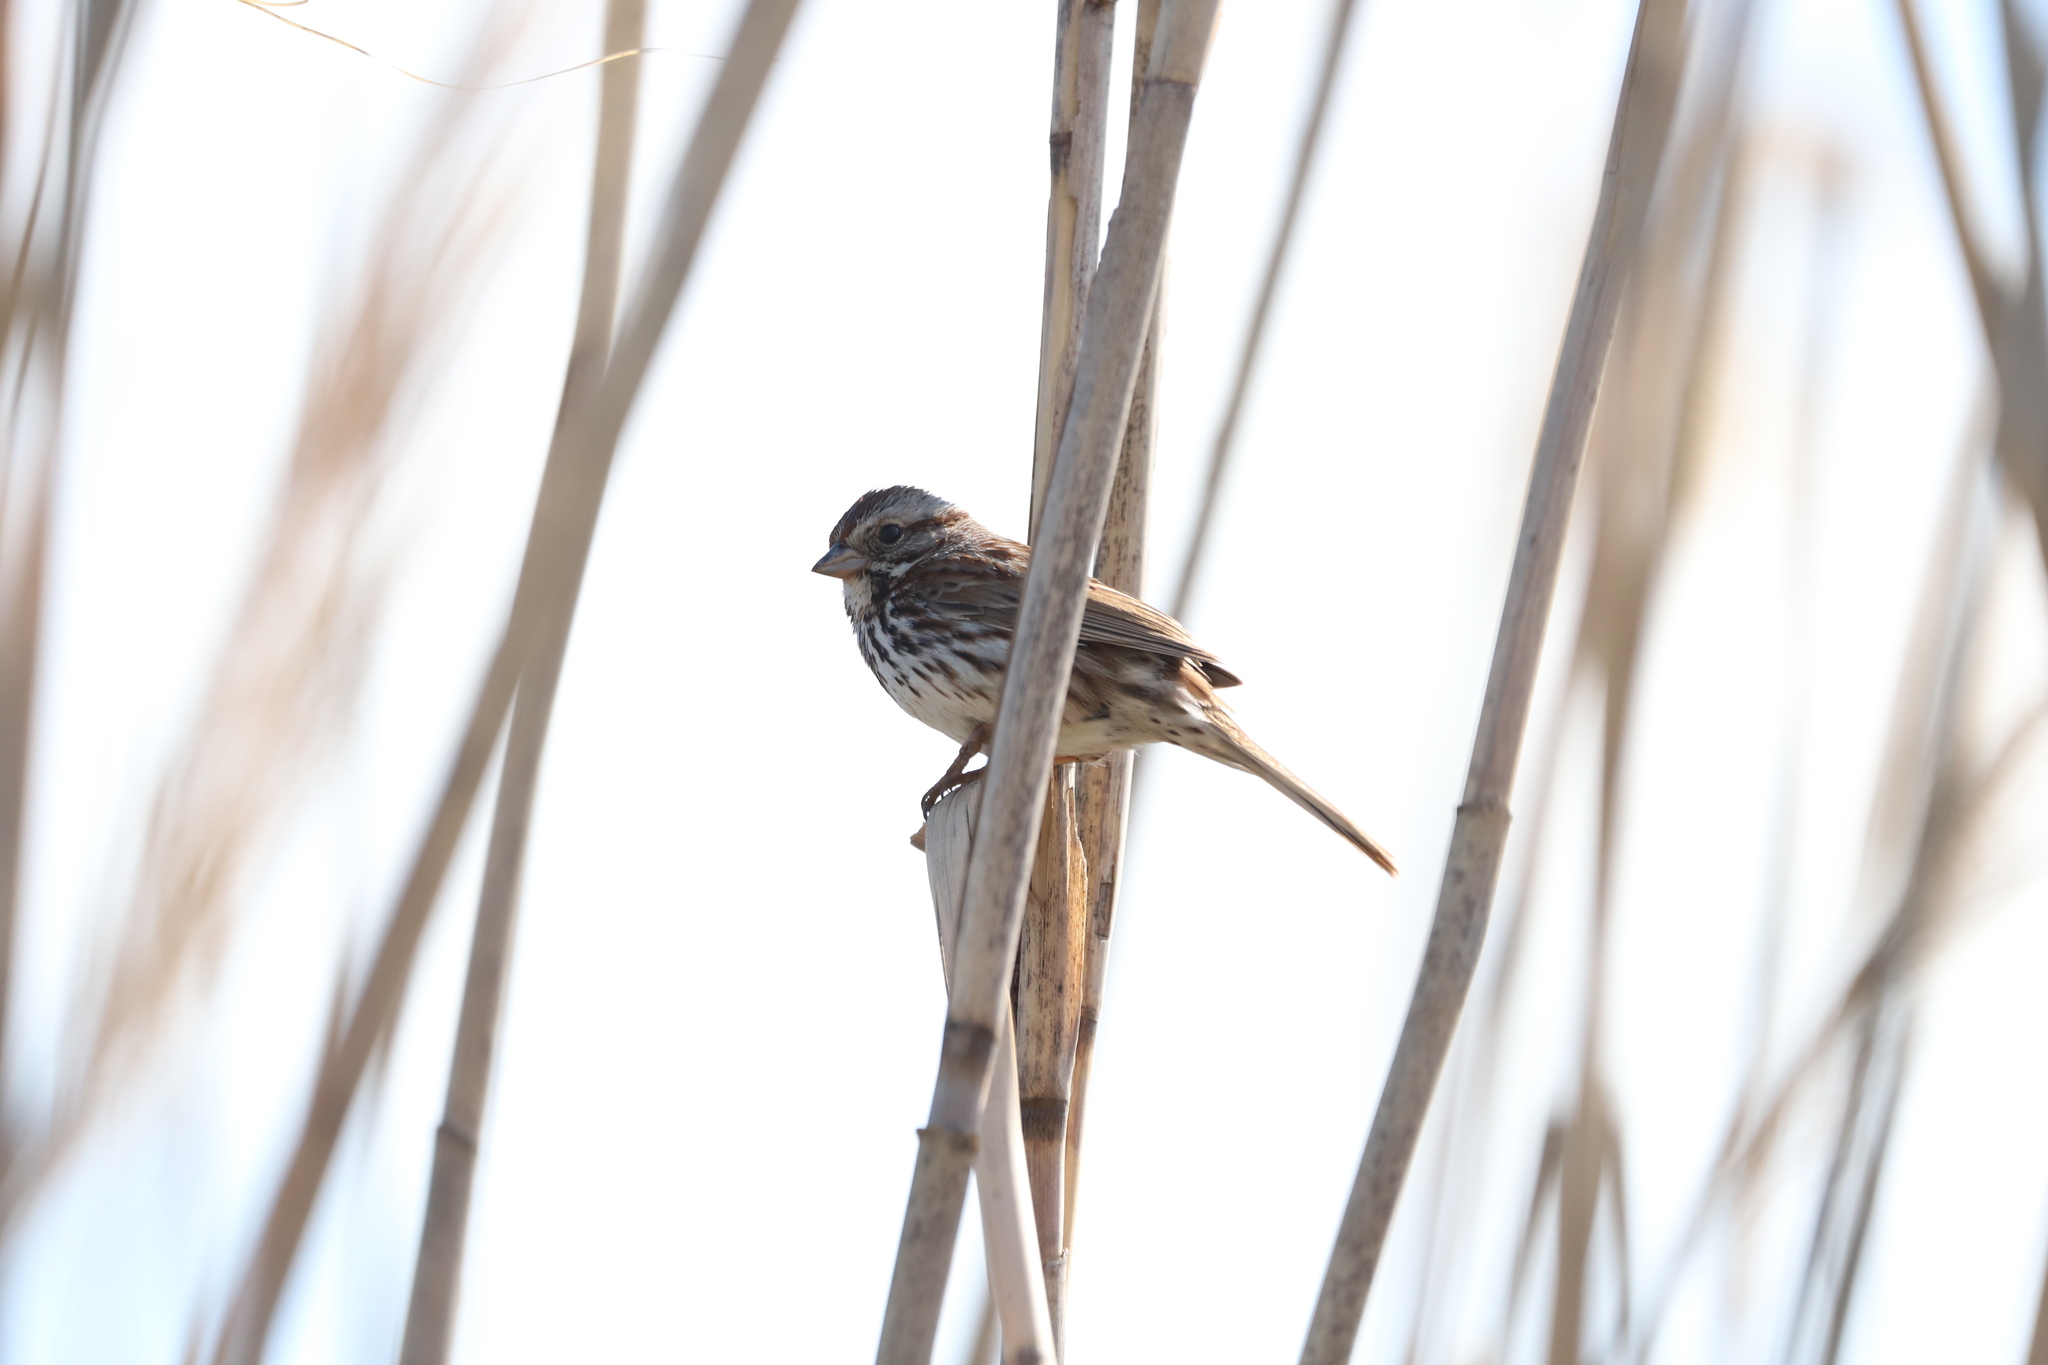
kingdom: Animalia
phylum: Chordata
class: Aves
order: Passeriformes
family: Passerellidae
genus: Melospiza
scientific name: Melospiza melodia
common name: Song sparrow
